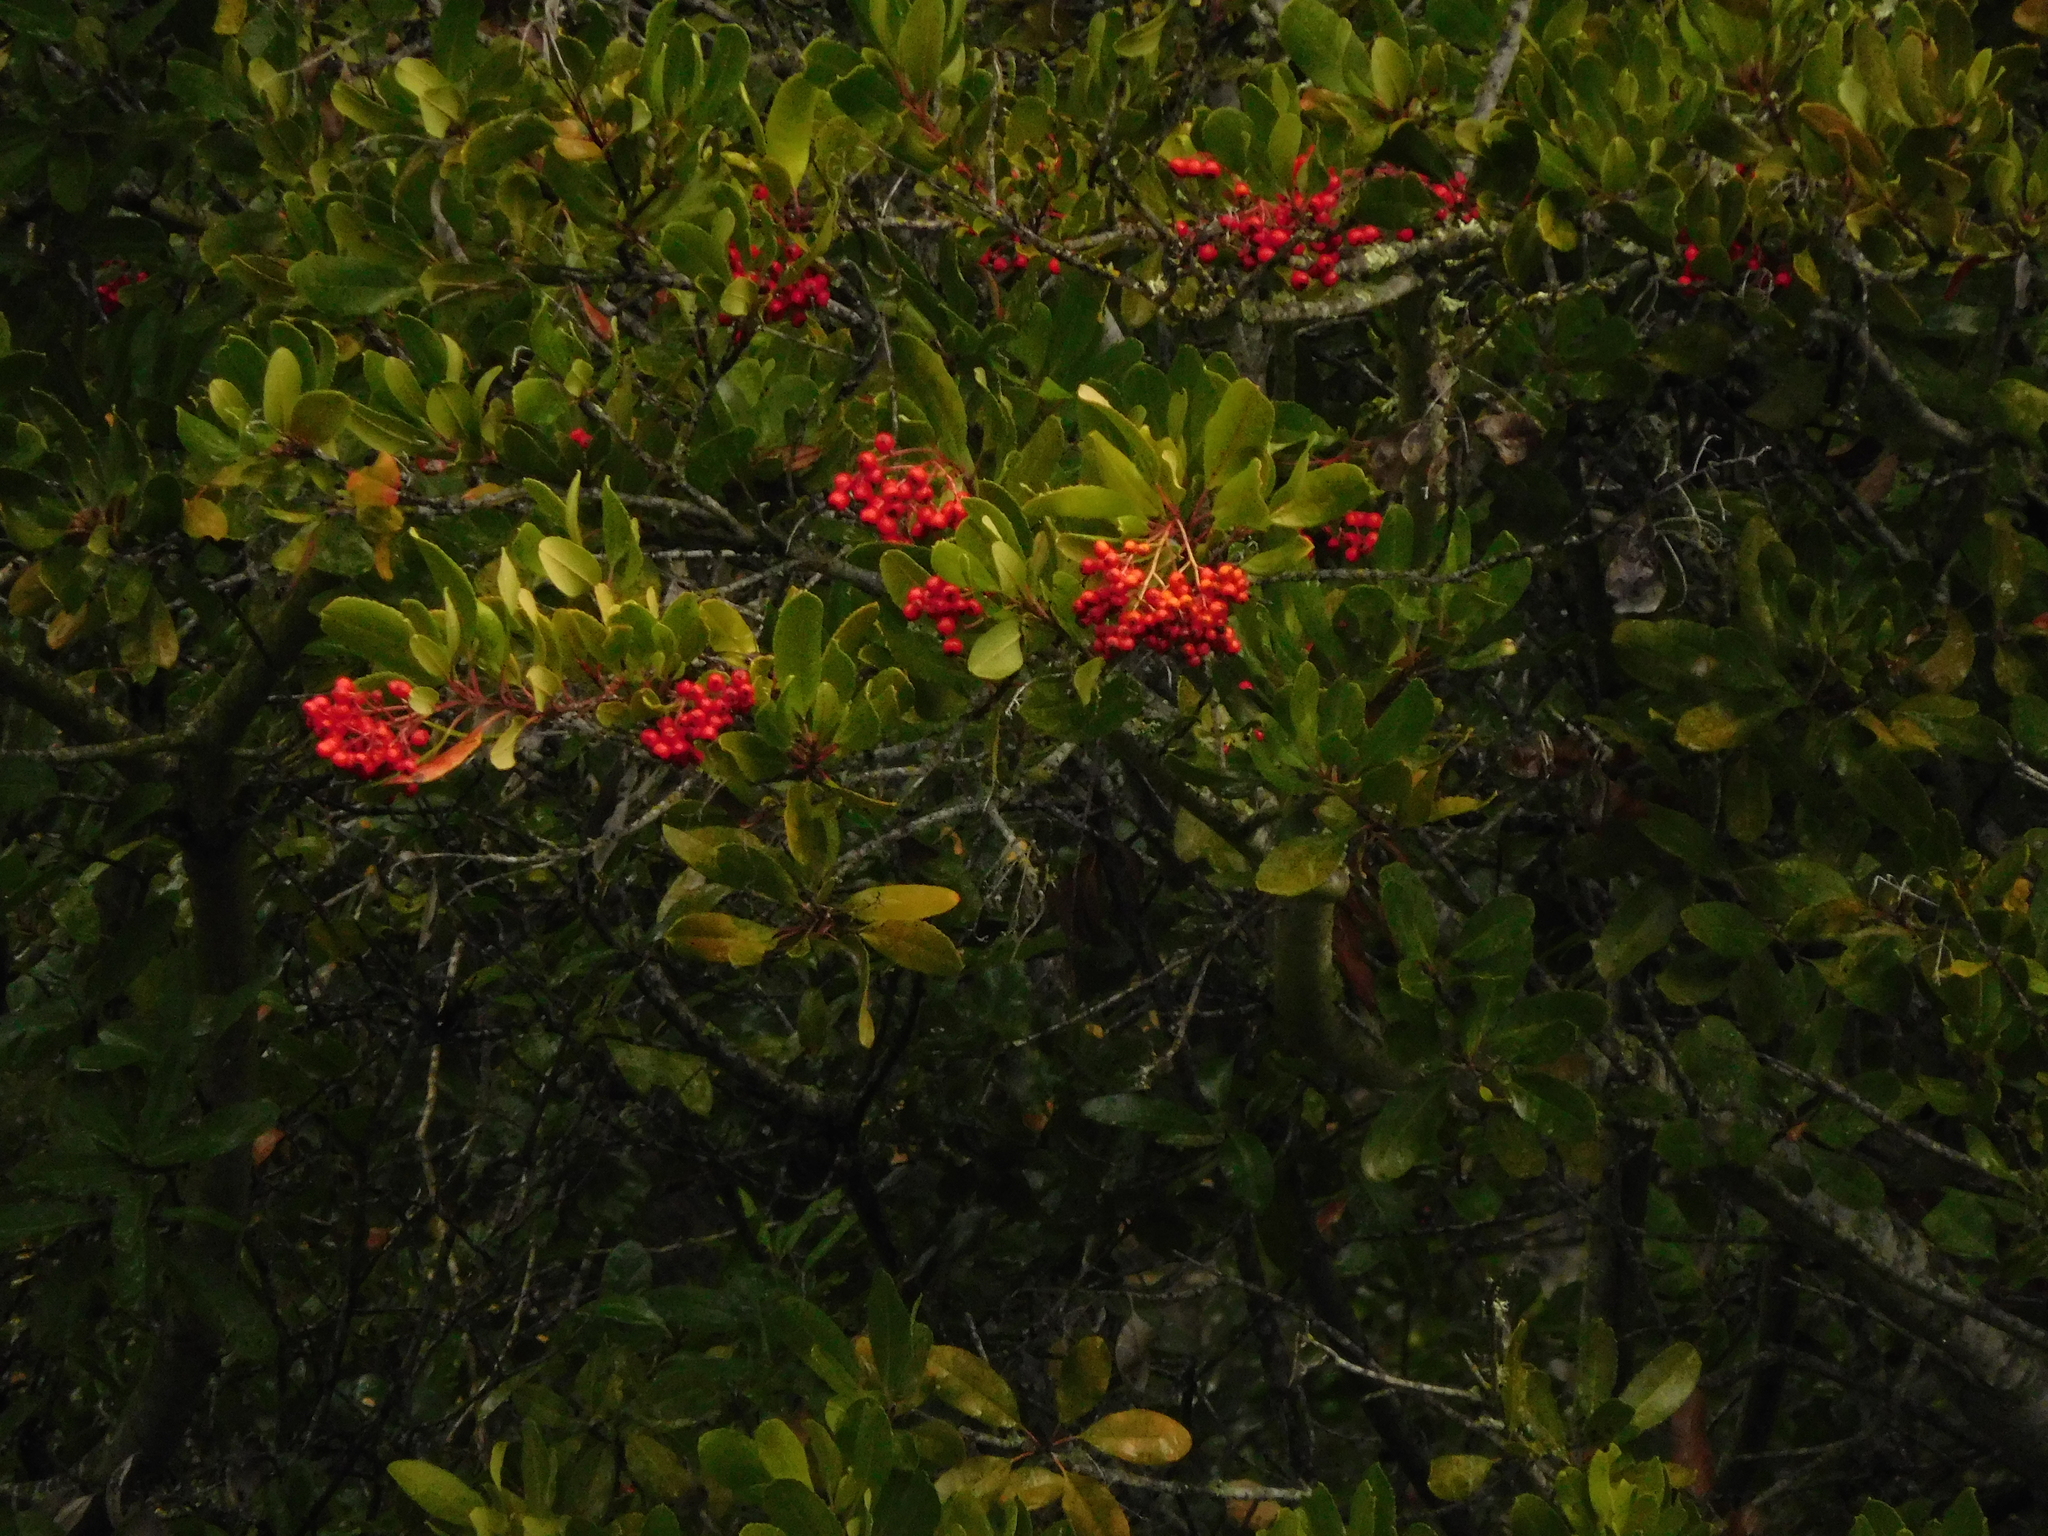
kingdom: Plantae
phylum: Tracheophyta
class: Magnoliopsida
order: Rosales
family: Rosaceae
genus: Heteromeles
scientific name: Heteromeles arbutifolia
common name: California-holly
